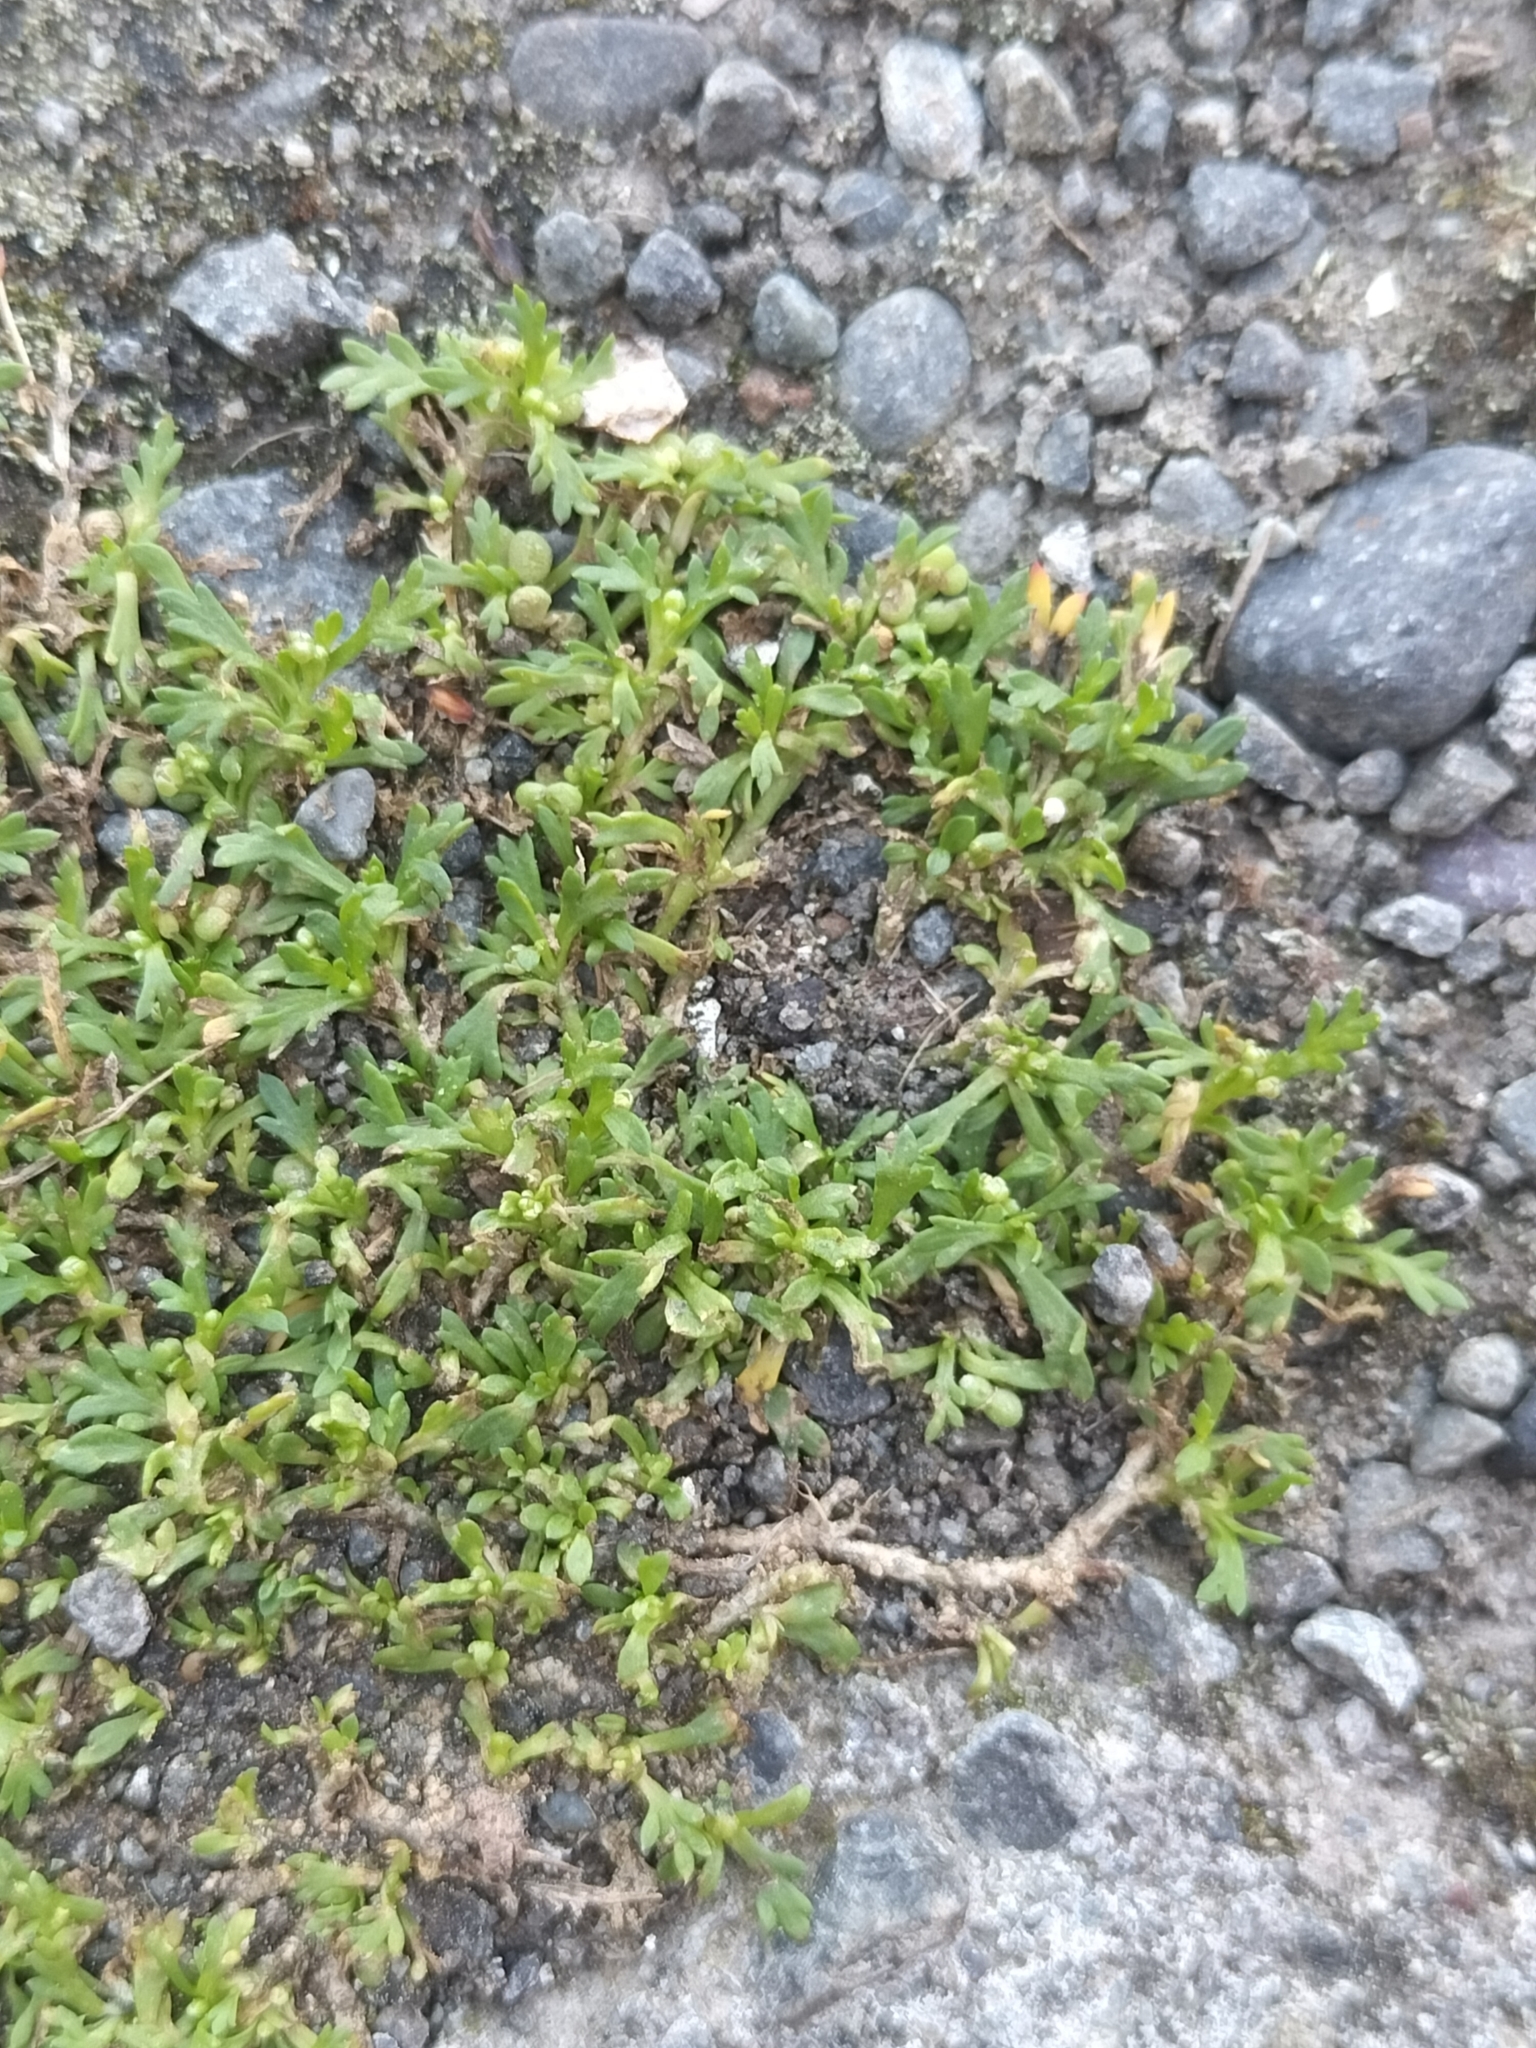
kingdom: Plantae
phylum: Tracheophyta
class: Magnoliopsida
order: Brassicales
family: Brassicaceae
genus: Lepidium
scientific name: Lepidium didymum
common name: Lesser swinecress
